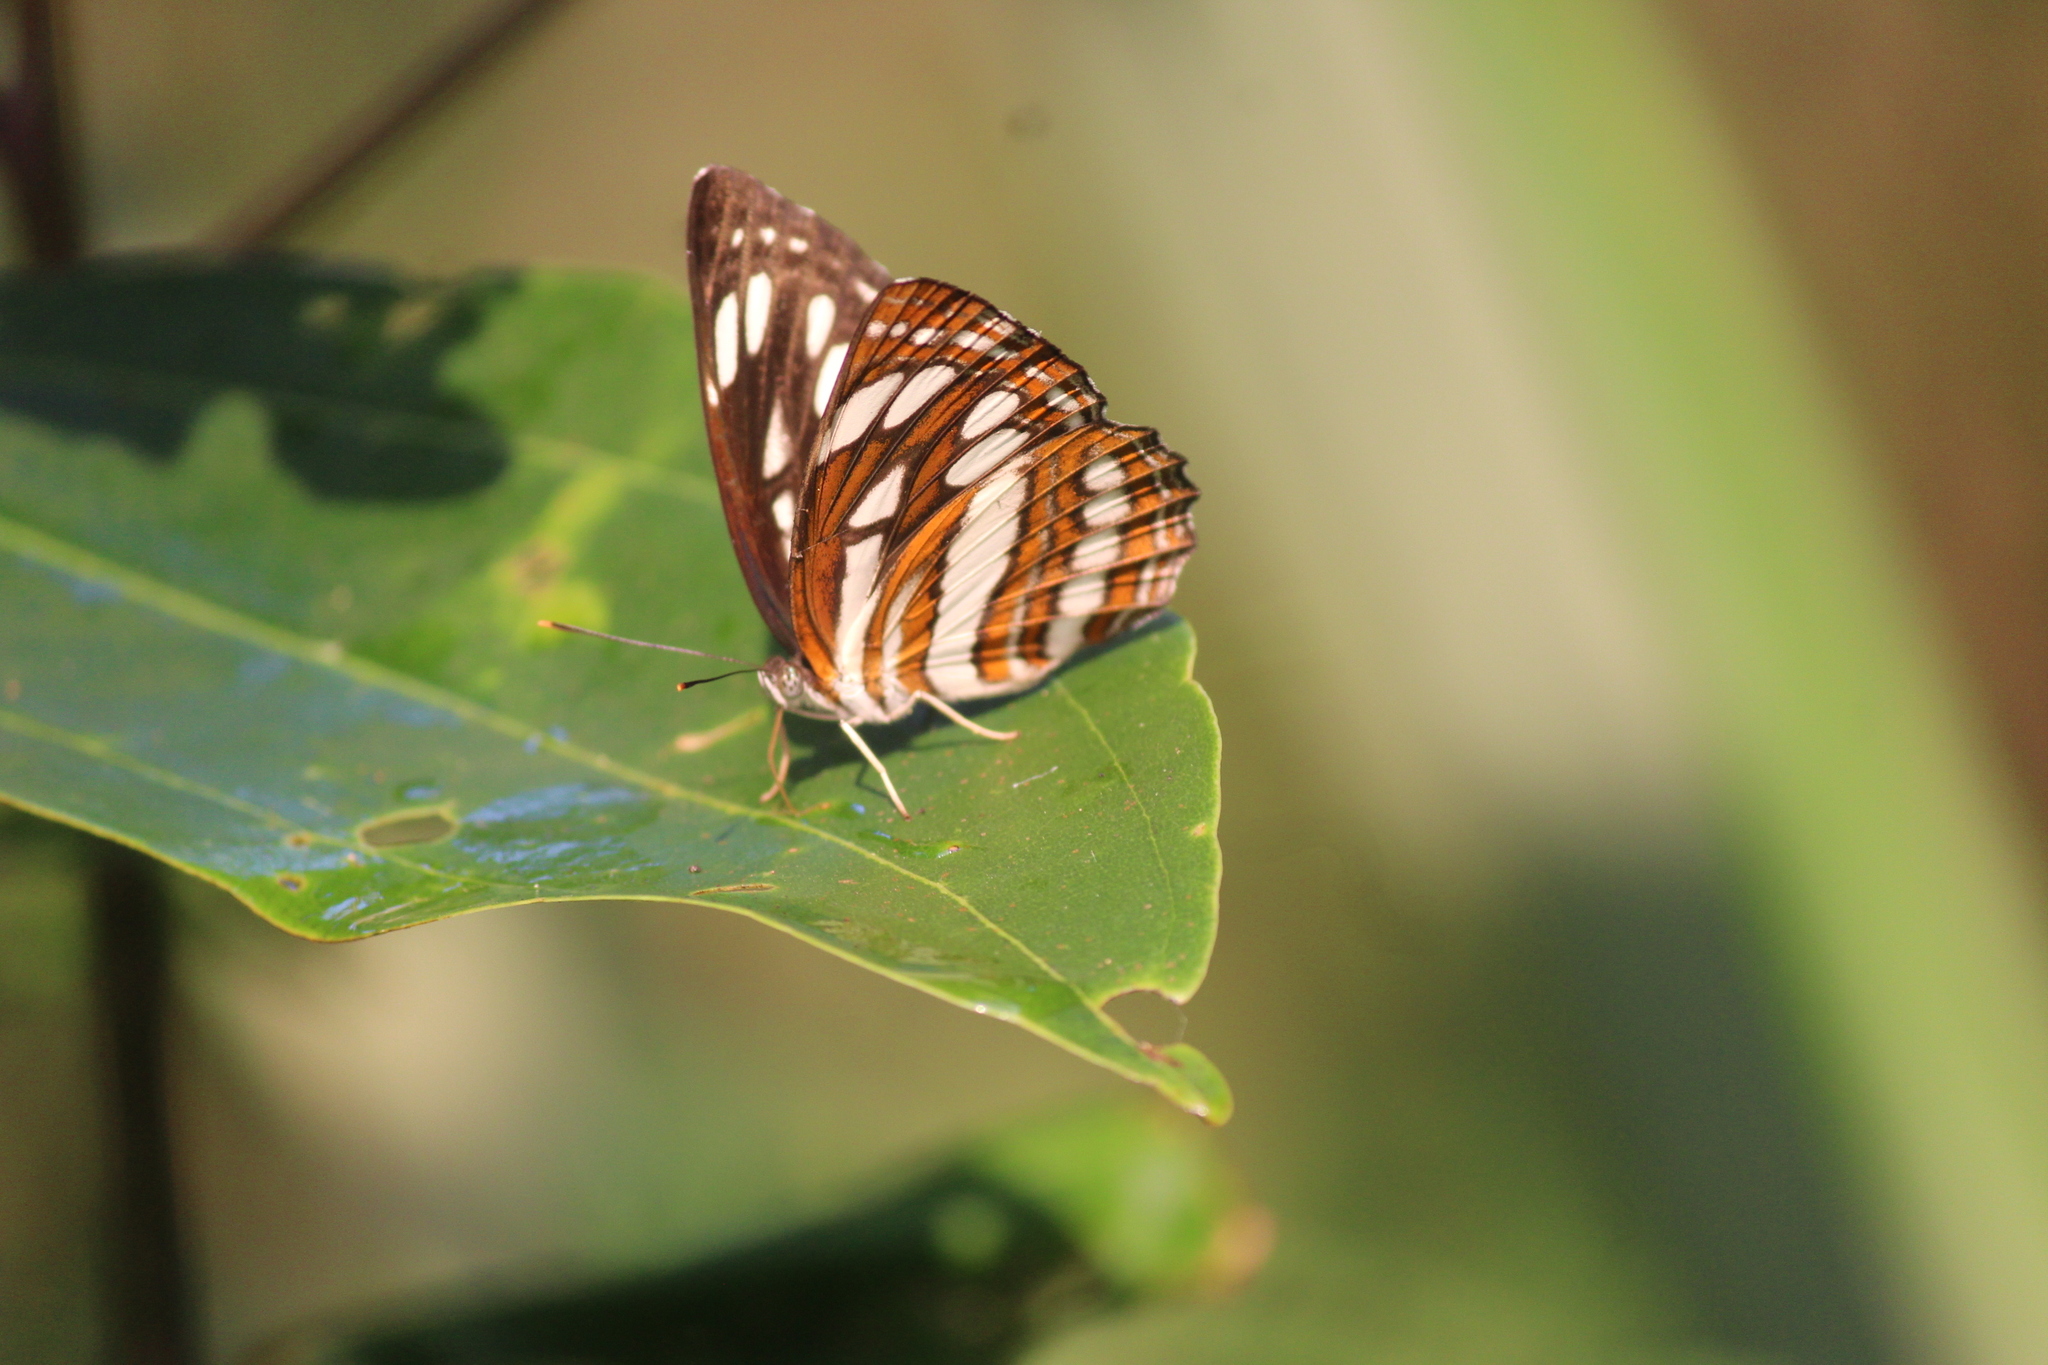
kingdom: Animalia
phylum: Arthropoda
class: Insecta
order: Lepidoptera
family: Nymphalidae
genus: Neptis
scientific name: Neptis hylas
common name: Common sailer
